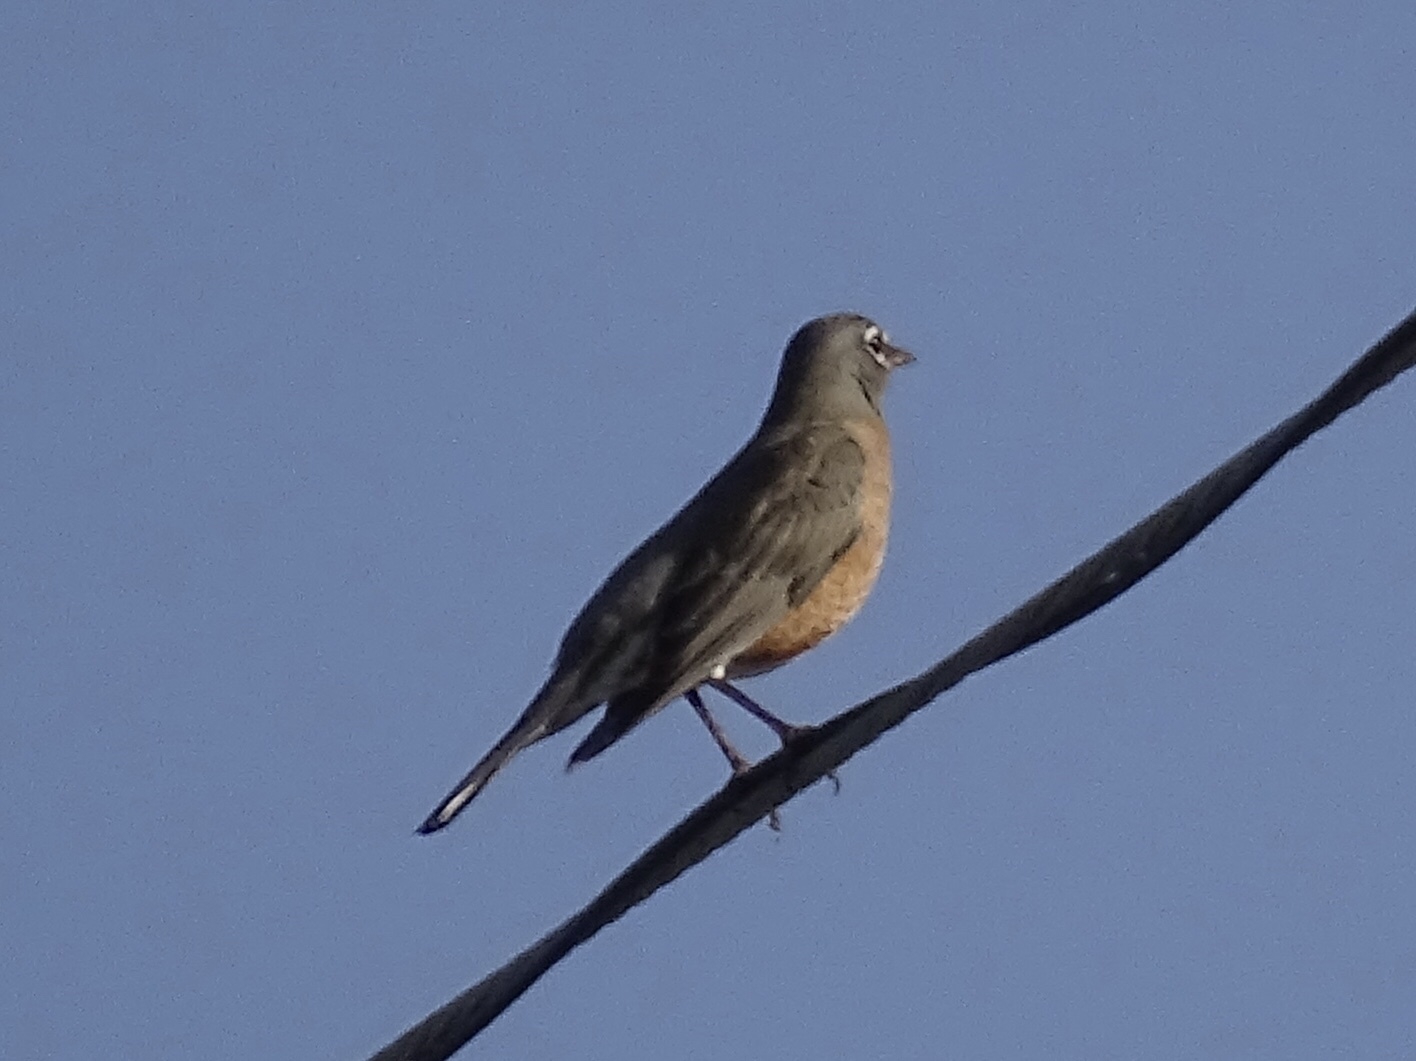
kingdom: Animalia
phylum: Chordata
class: Aves
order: Passeriformes
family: Turdidae
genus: Turdus
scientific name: Turdus migratorius
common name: American robin
